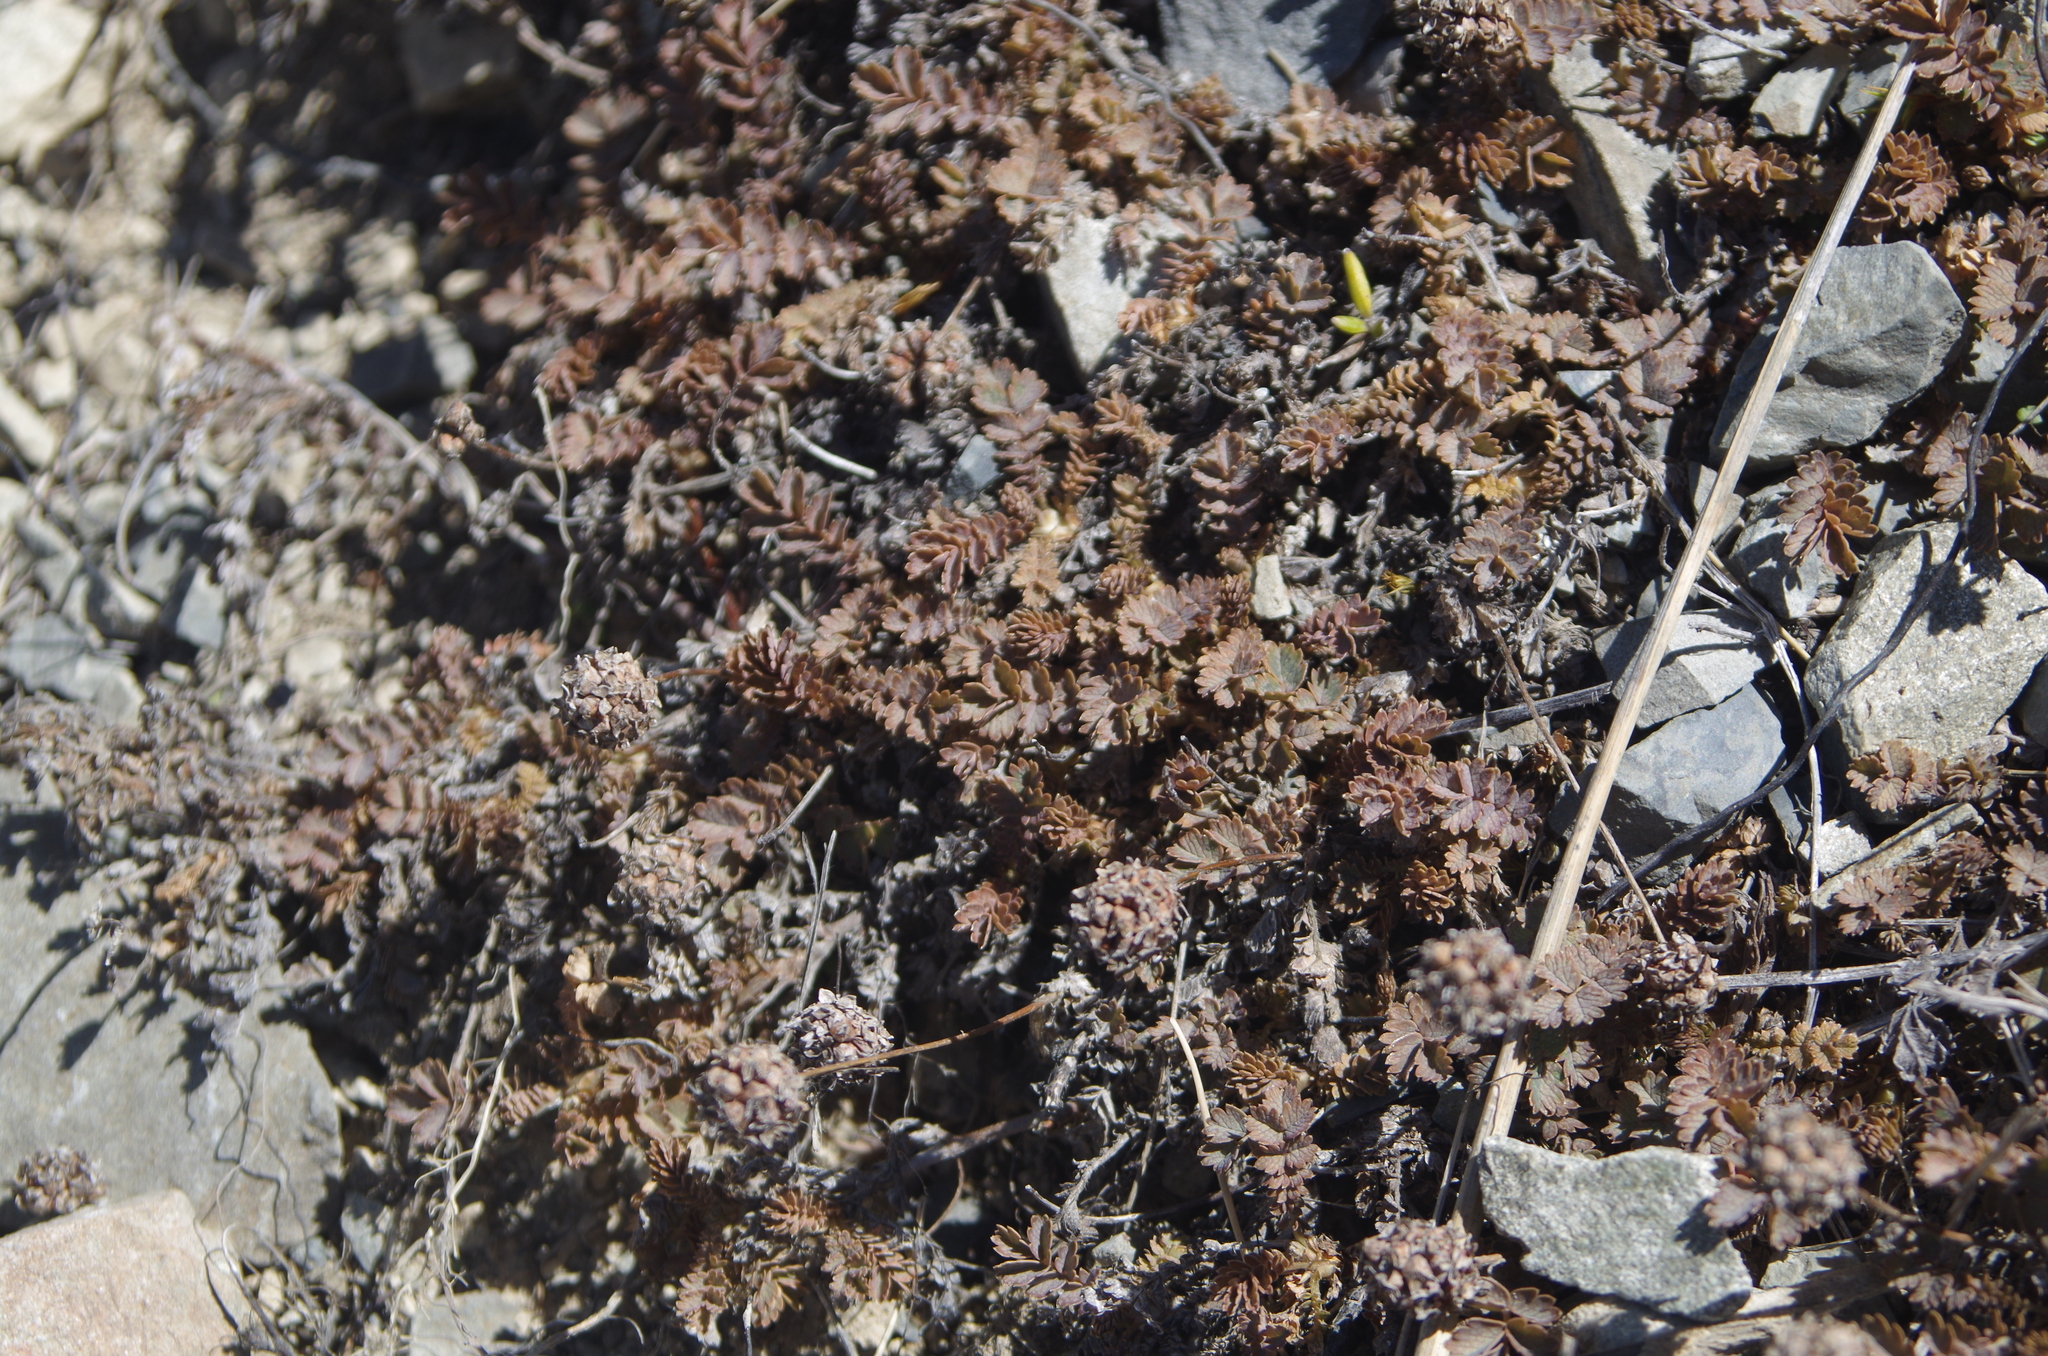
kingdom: Plantae
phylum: Tracheophyta
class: Magnoliopsida
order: Rosales
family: Rosaceae
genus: Acaena
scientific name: Acaena inermis
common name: Spineless acaena
